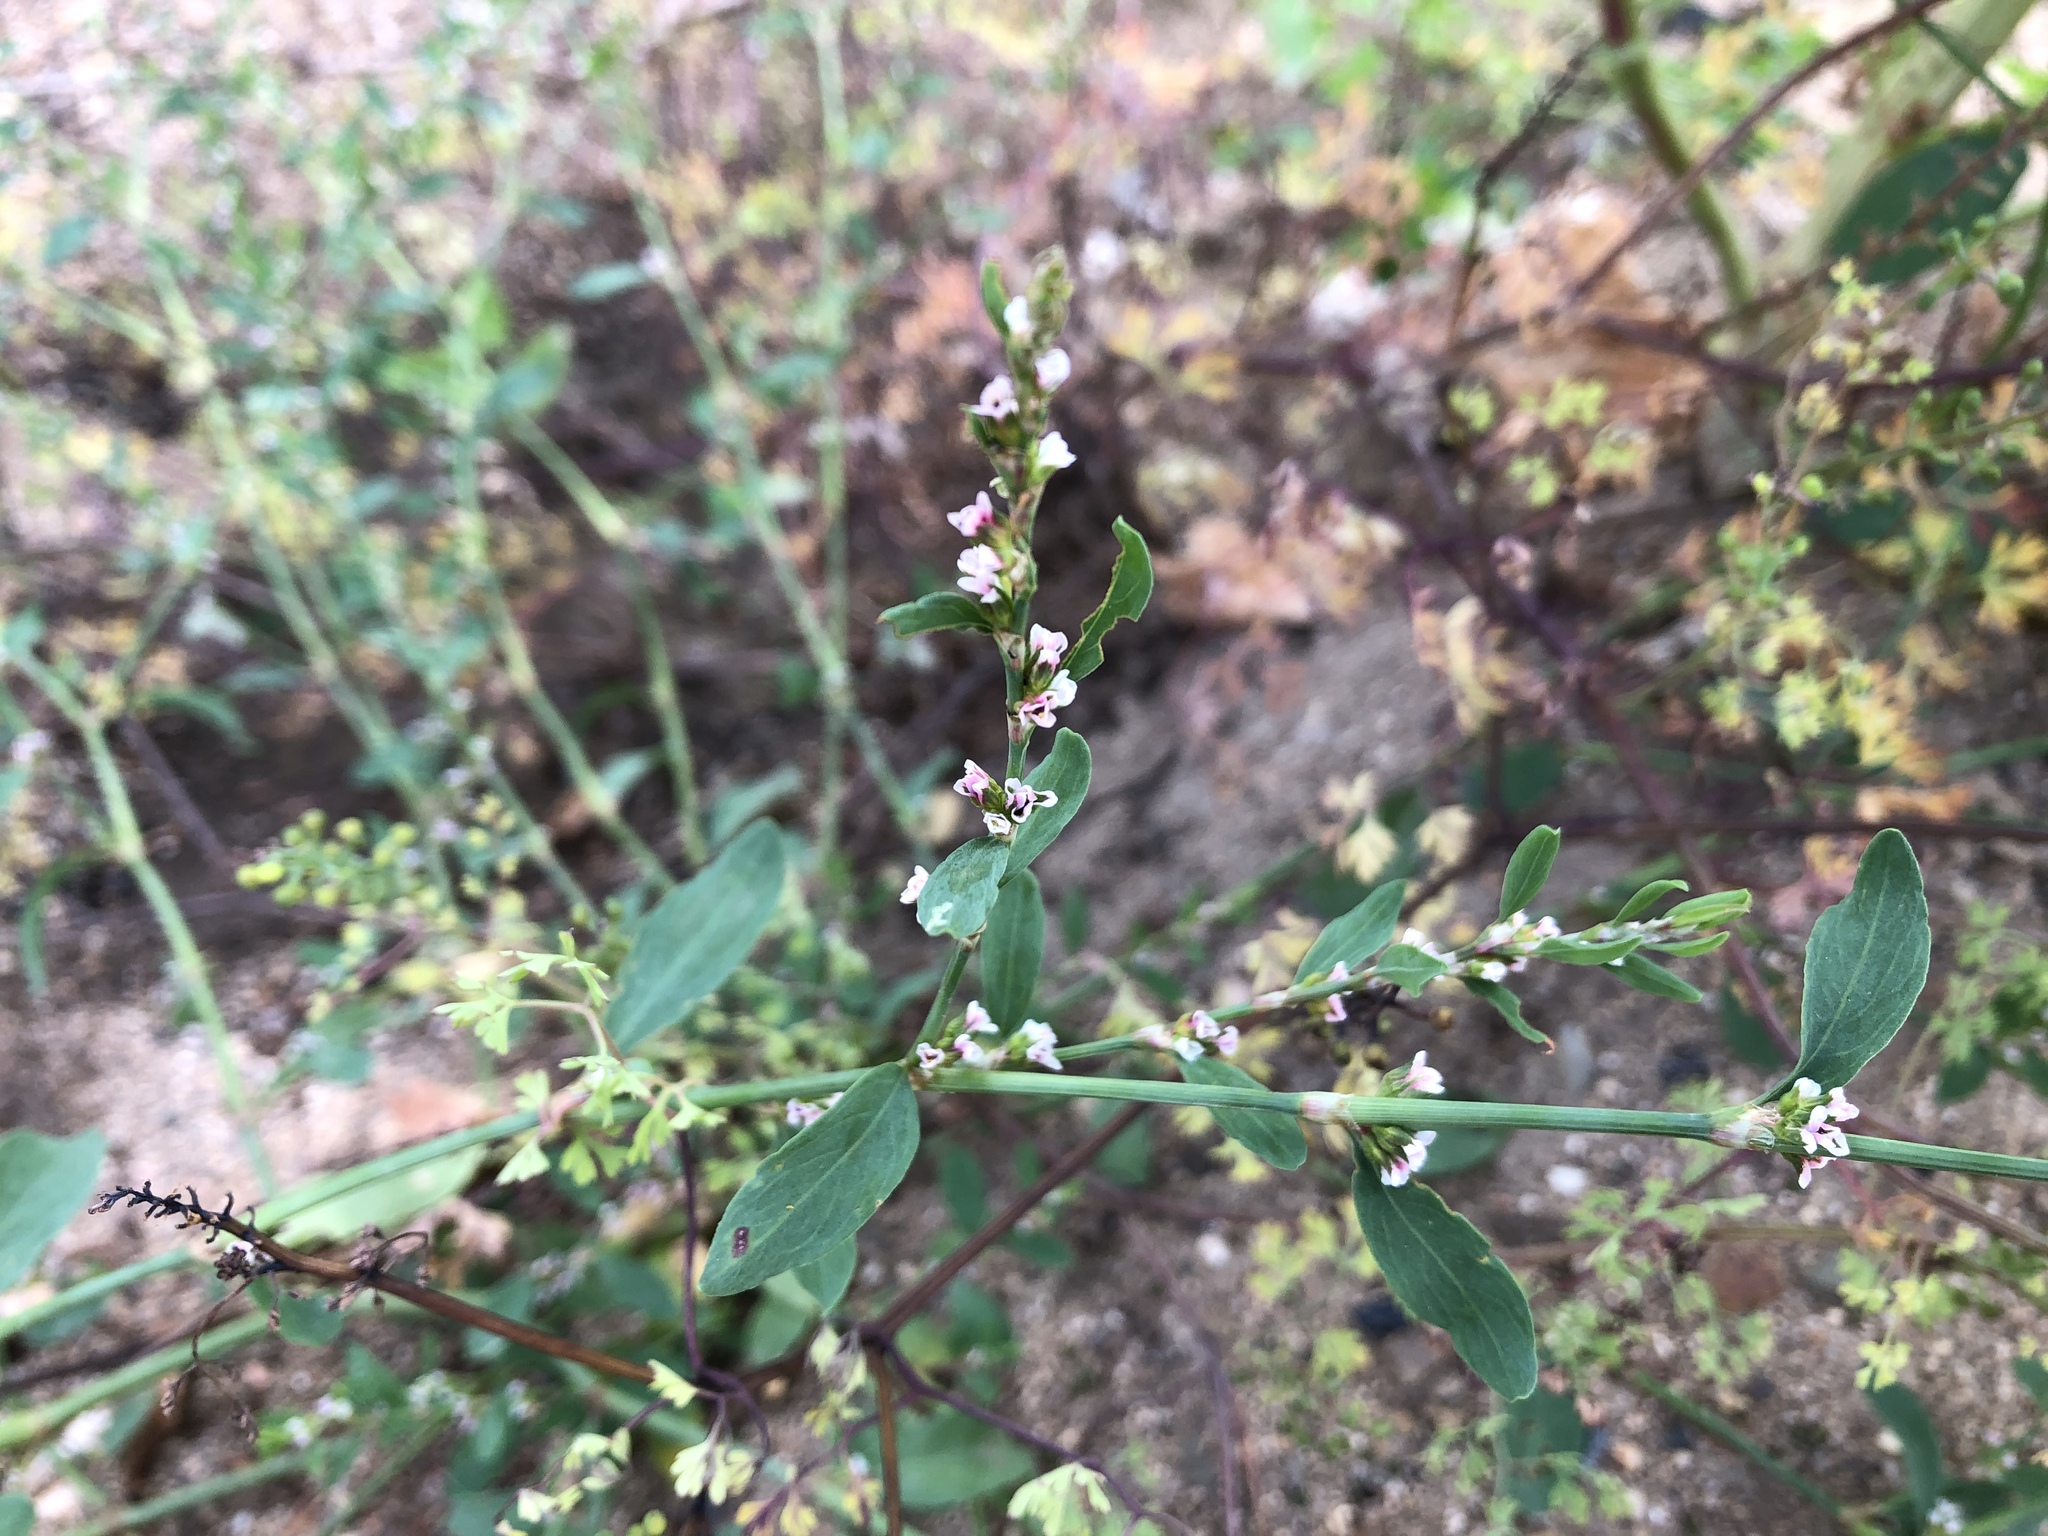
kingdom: Plantae
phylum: Tracheophyta
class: Magnoliopsida
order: Caryophyllales
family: Polygonaceae
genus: Polygonum
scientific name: Polygonum aviculare
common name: Prostrate knotweed
